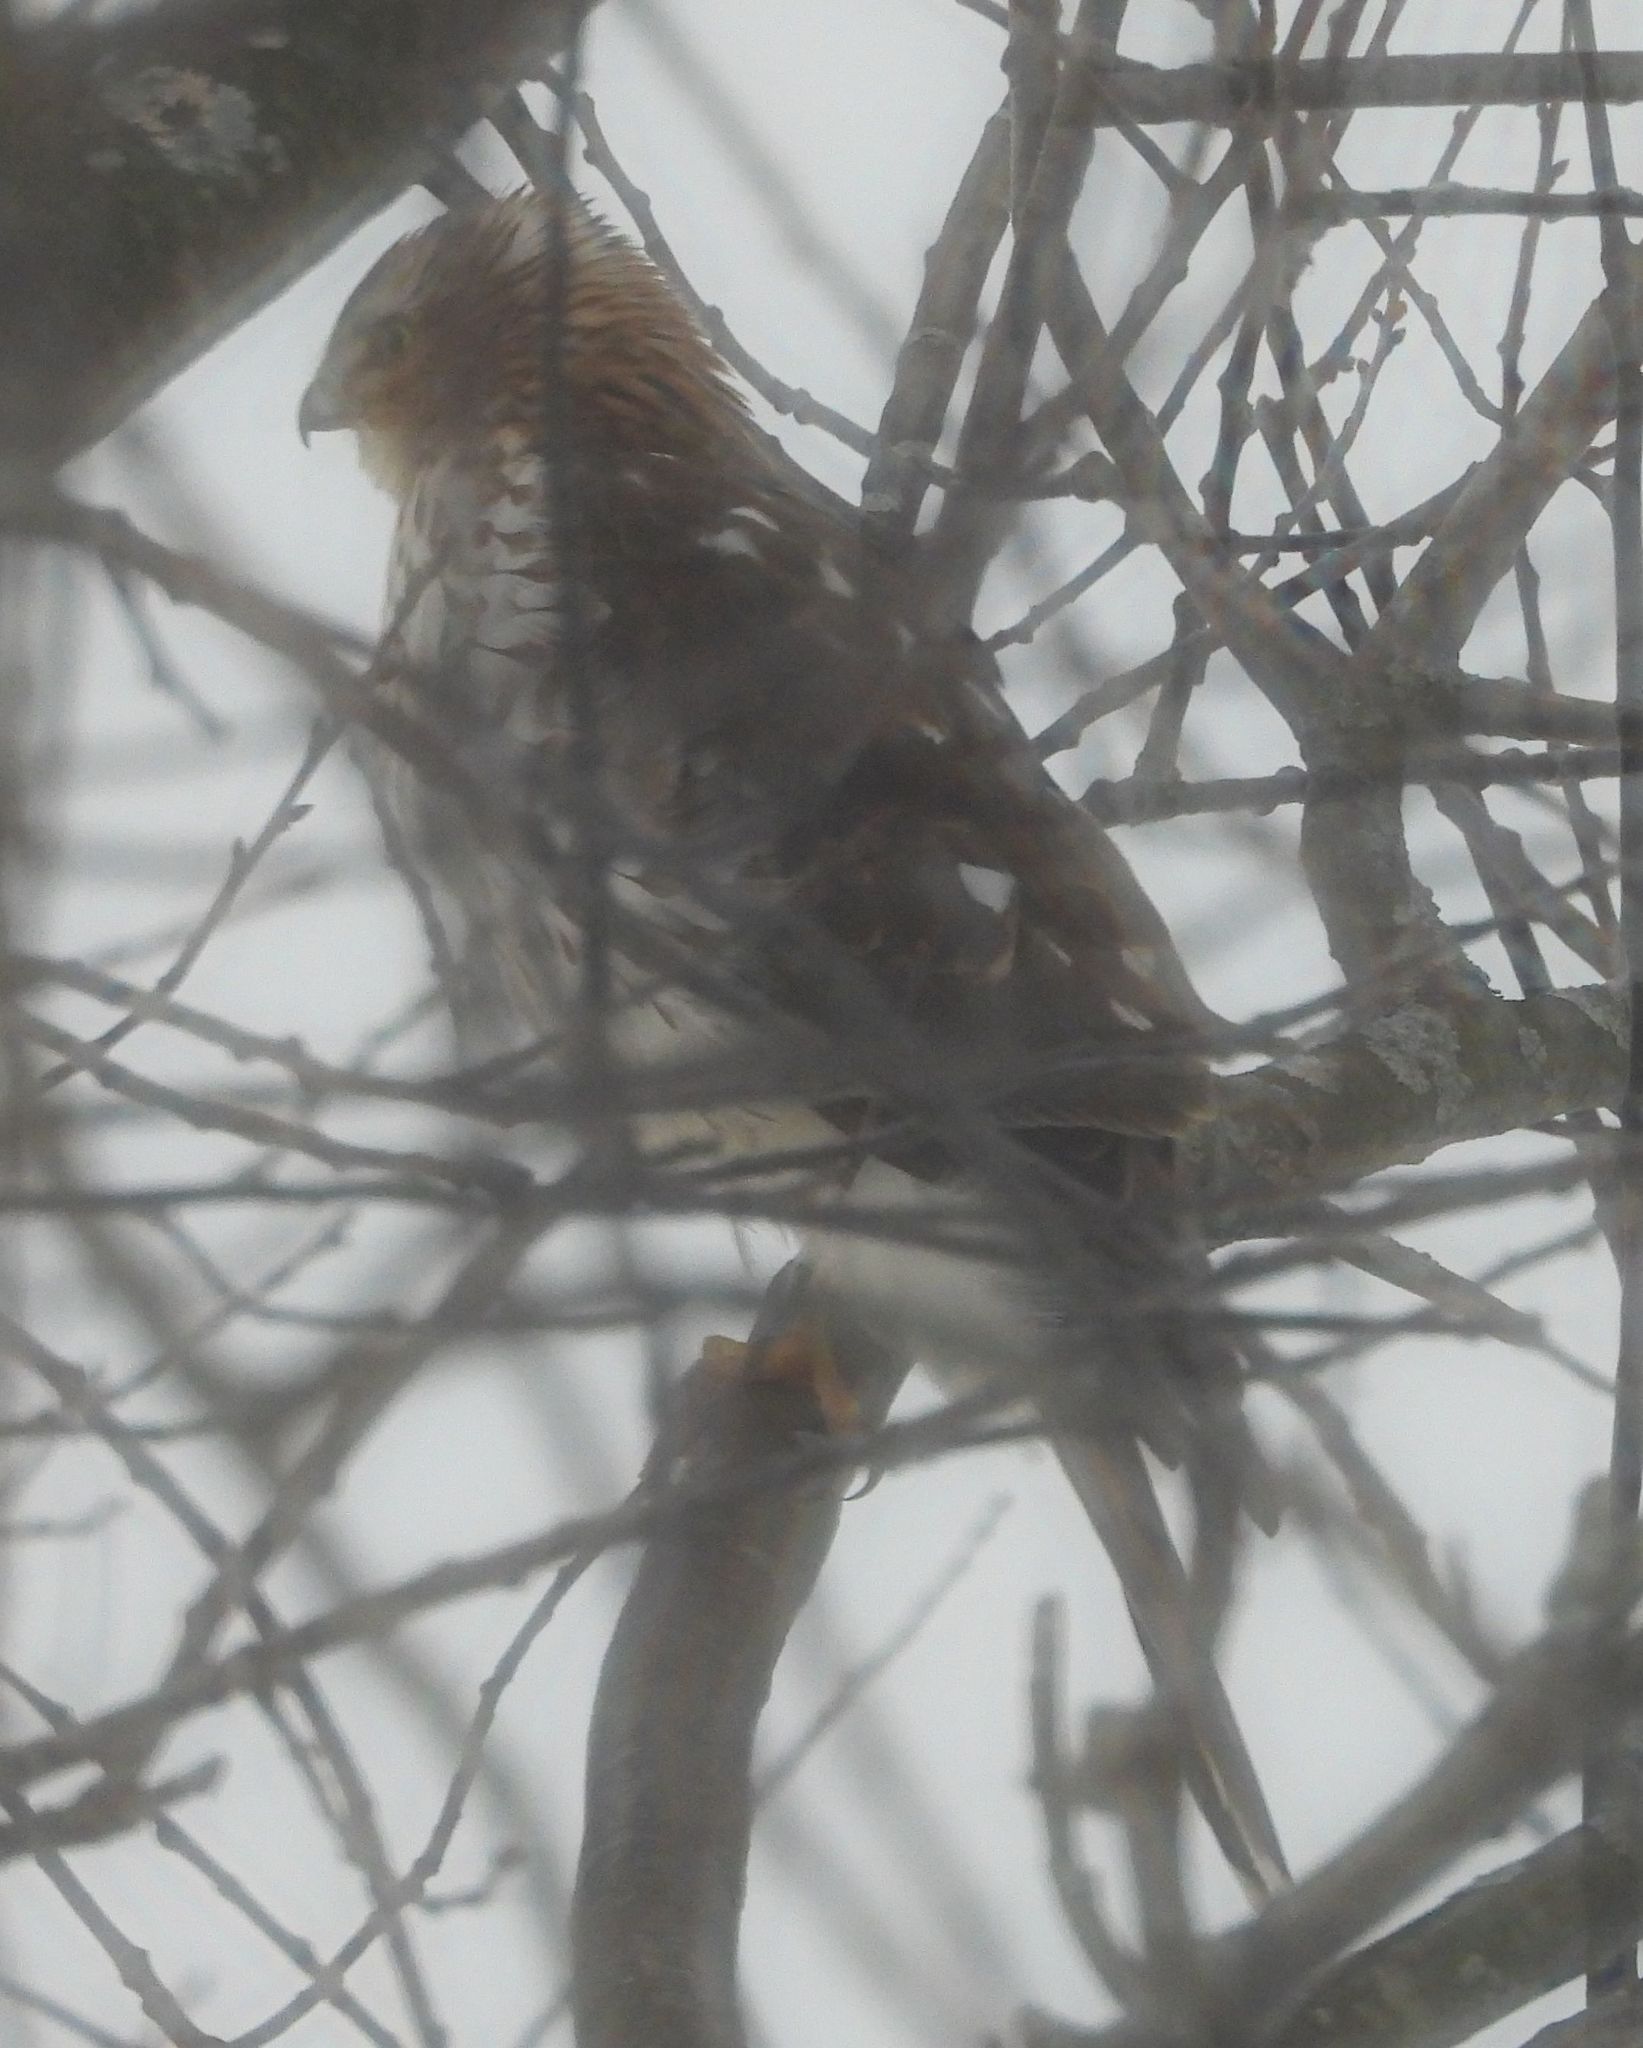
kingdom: Animalia
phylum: Chordata
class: Aves
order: Accipitriformes
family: Accipitridae
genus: Accipiter
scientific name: Accipiter cooperii
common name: Cooper's hawk
